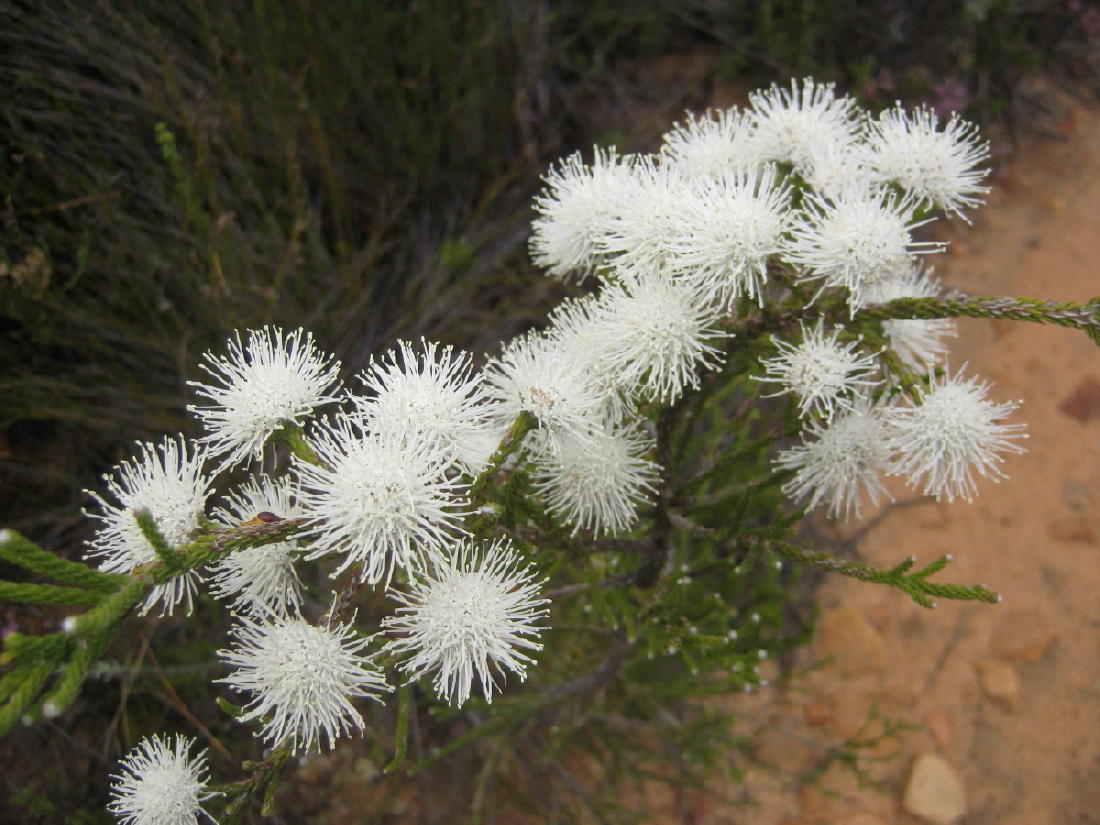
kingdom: Plantae
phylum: Tracheophyta
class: Magnoliopsida
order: Bruniales
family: Bruniaceae
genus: Brunia
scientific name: Brunia noduliflora
